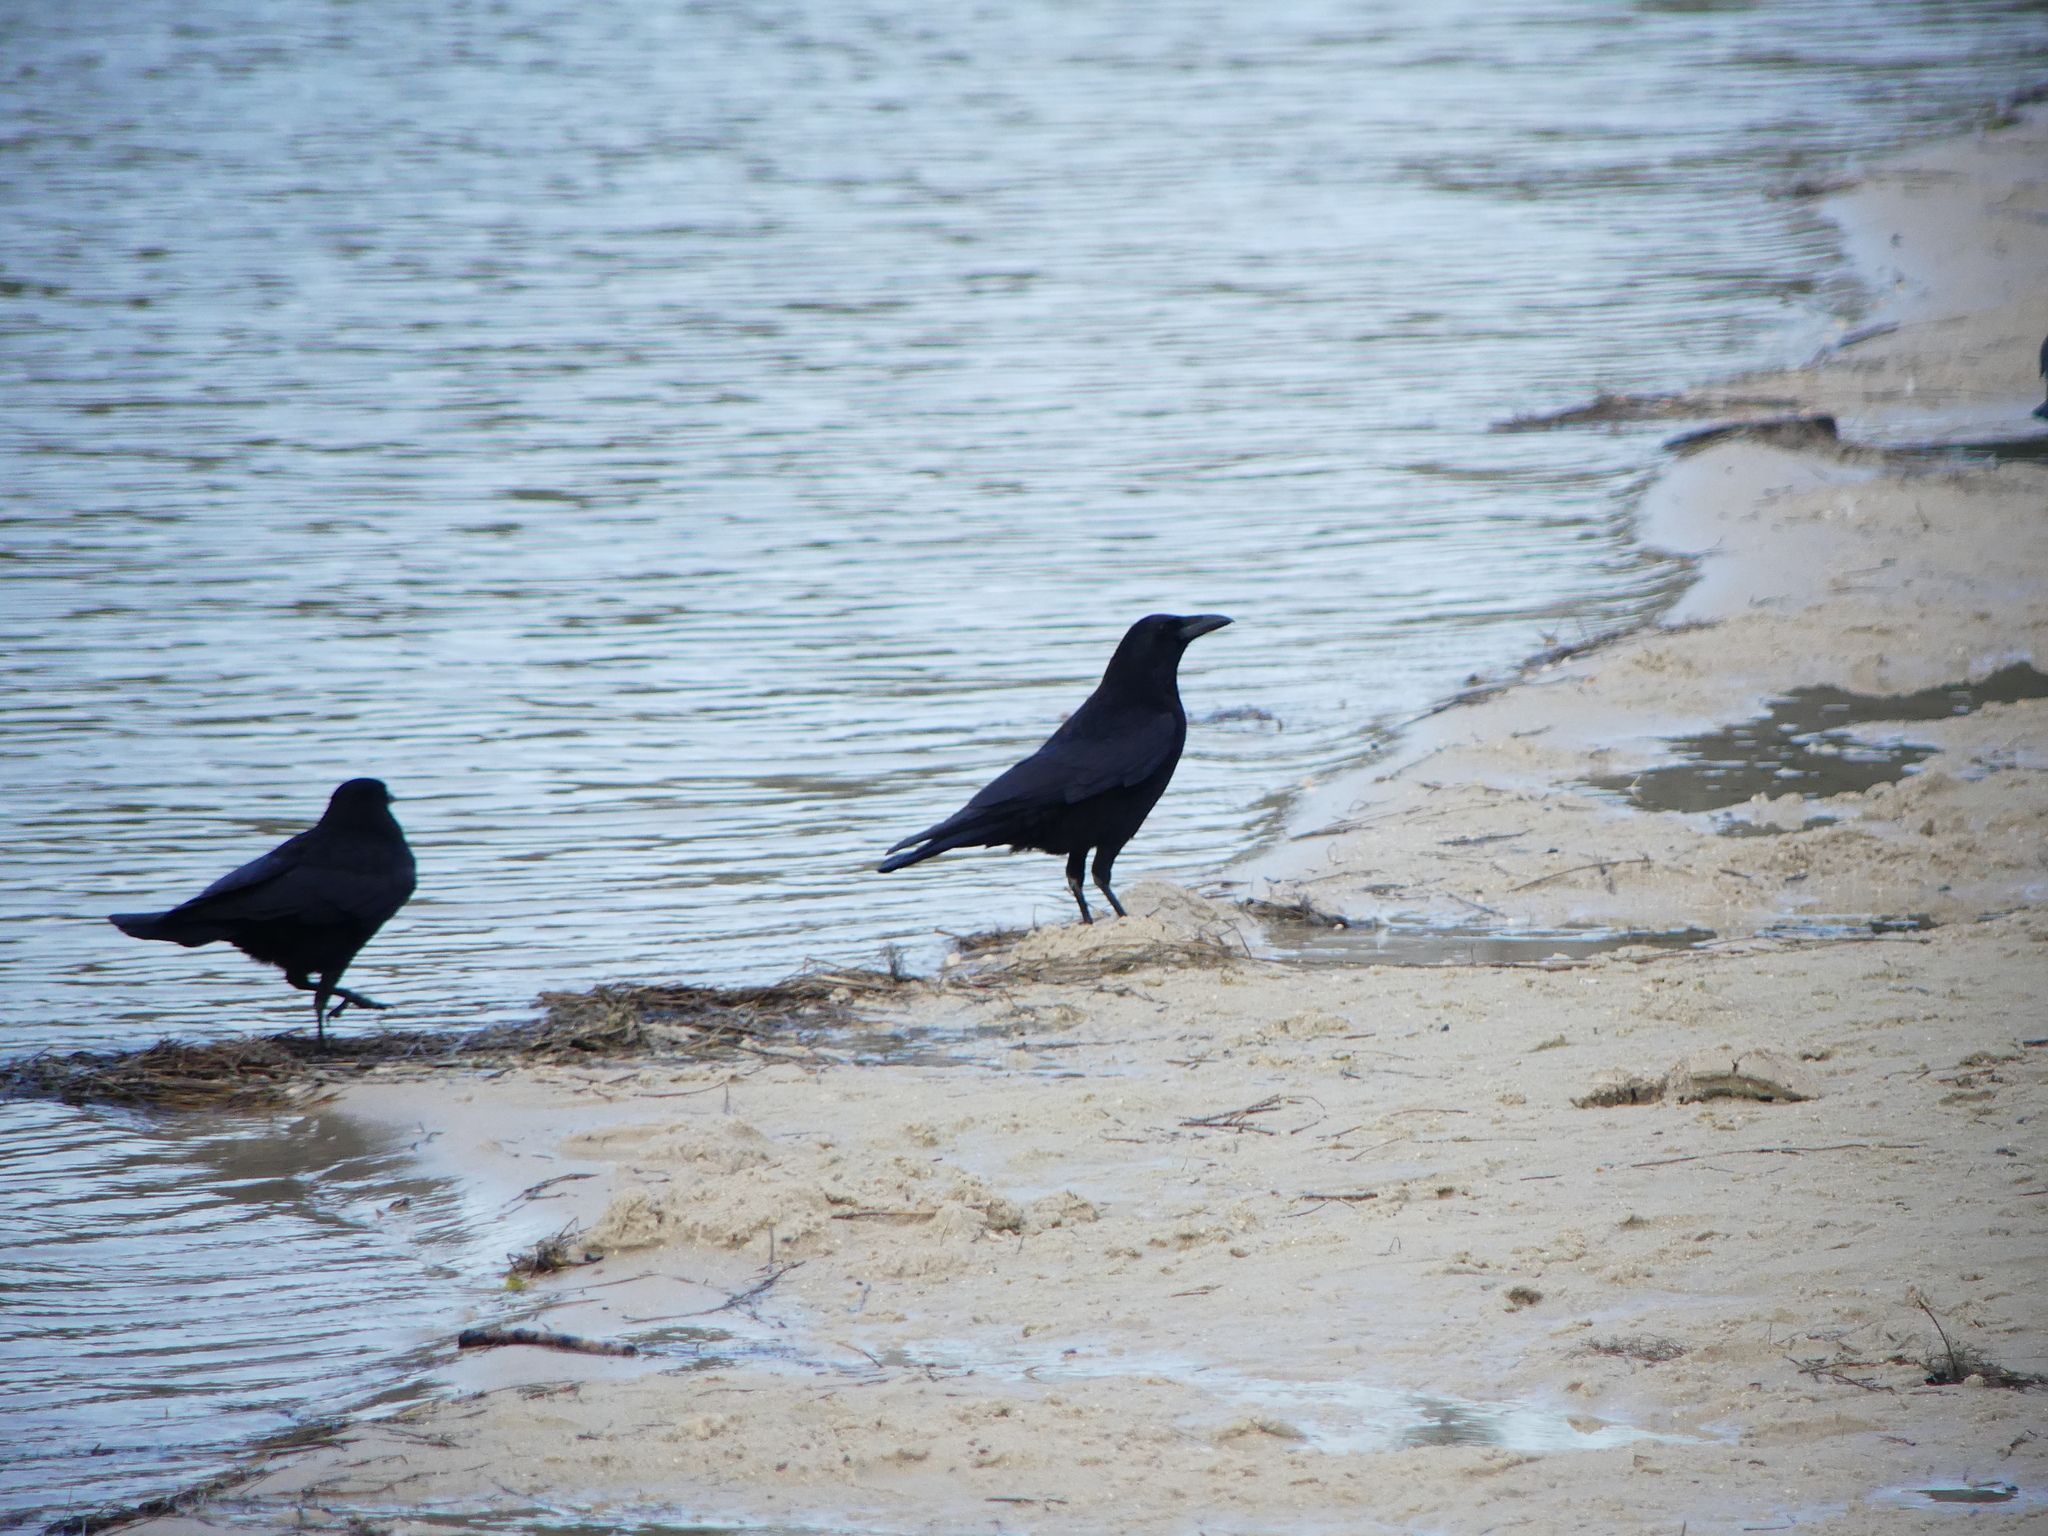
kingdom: Animalia
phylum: Chordata
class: Aves
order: Passeriformes
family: Corvidae
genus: Corvus
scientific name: Corvus corone
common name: Carrion crow
